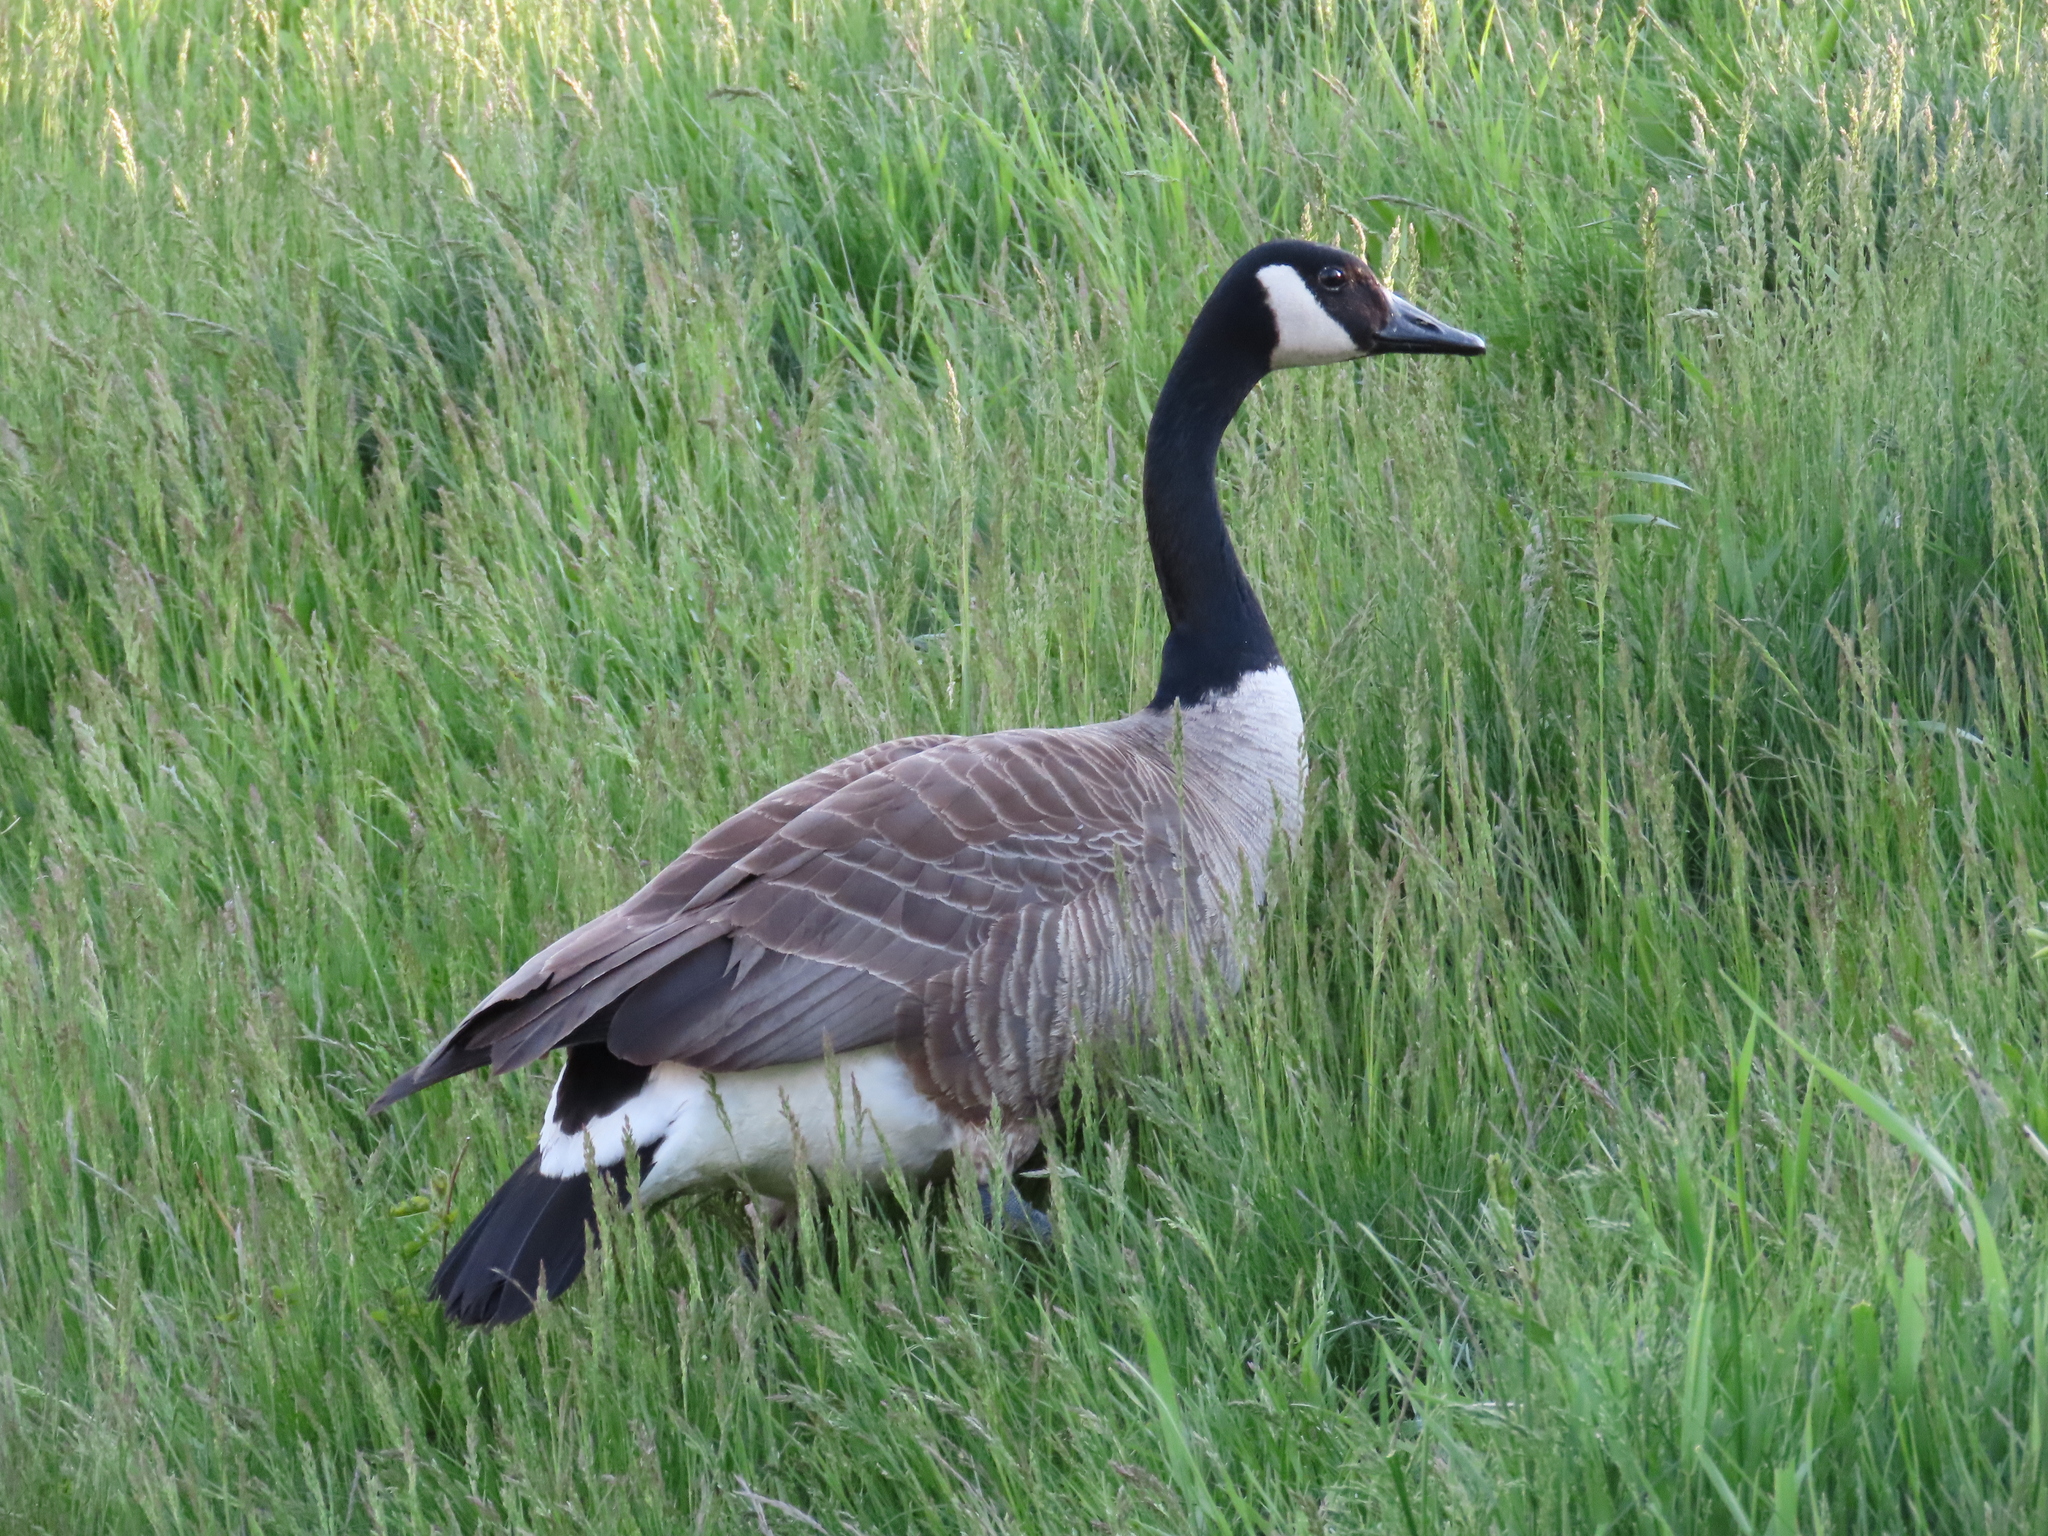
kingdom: Animalia
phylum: Chordata
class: Aves
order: Anseriformes
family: Anatidae
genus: Branta
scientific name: Branta canadensis
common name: Canada goose
